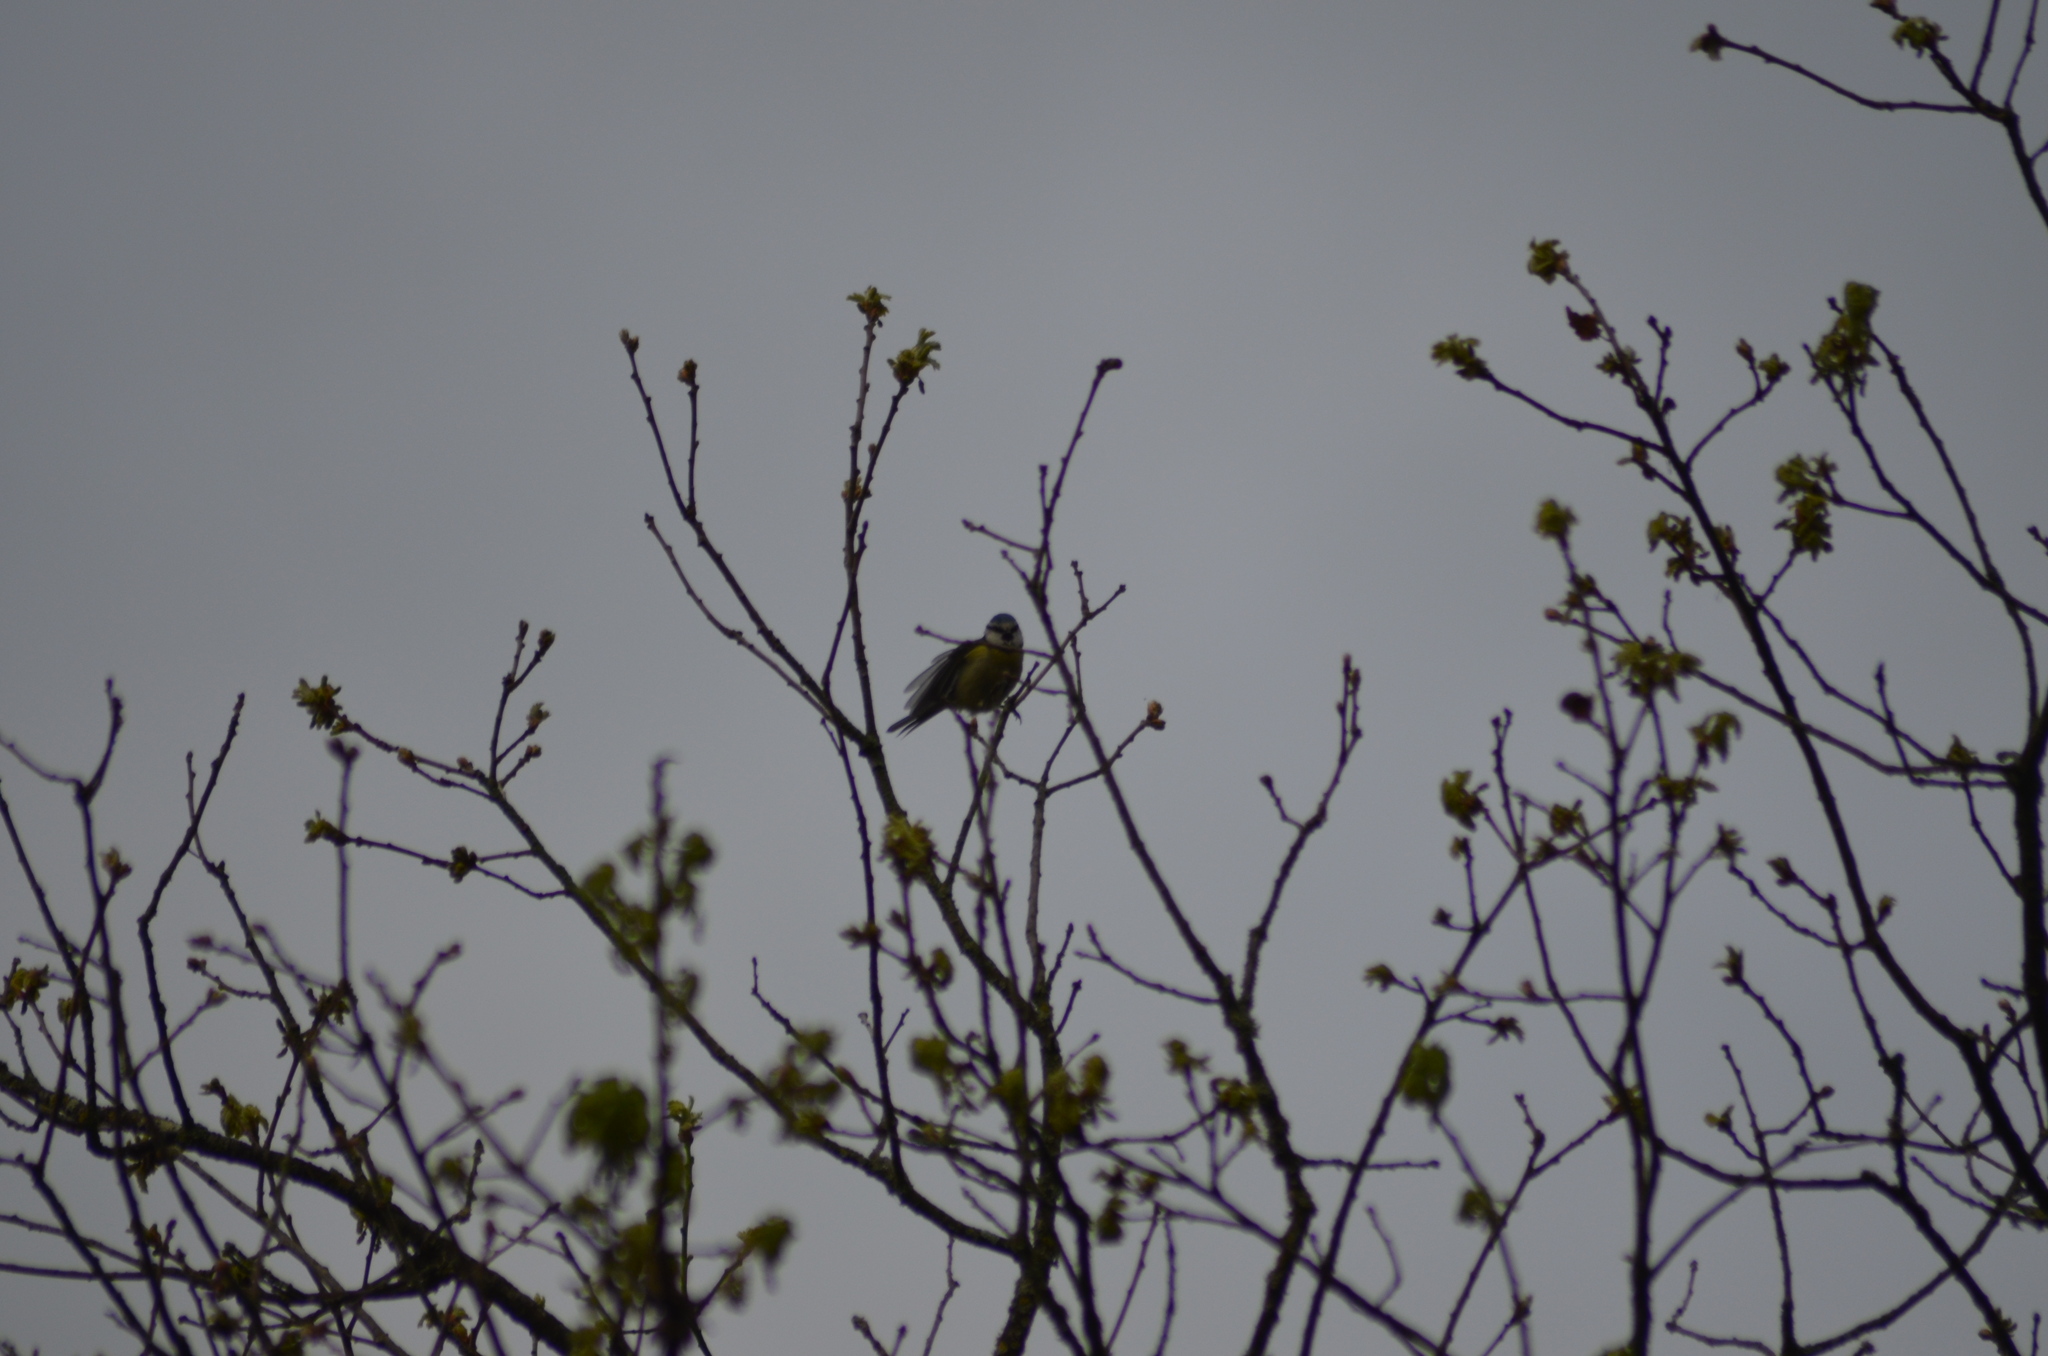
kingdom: Animalia
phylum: Chordata
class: Aves
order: Passeriformes
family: Paridae
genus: Cyanistes
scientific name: Cyanistes caeruleus
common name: Eurasian blue tit
